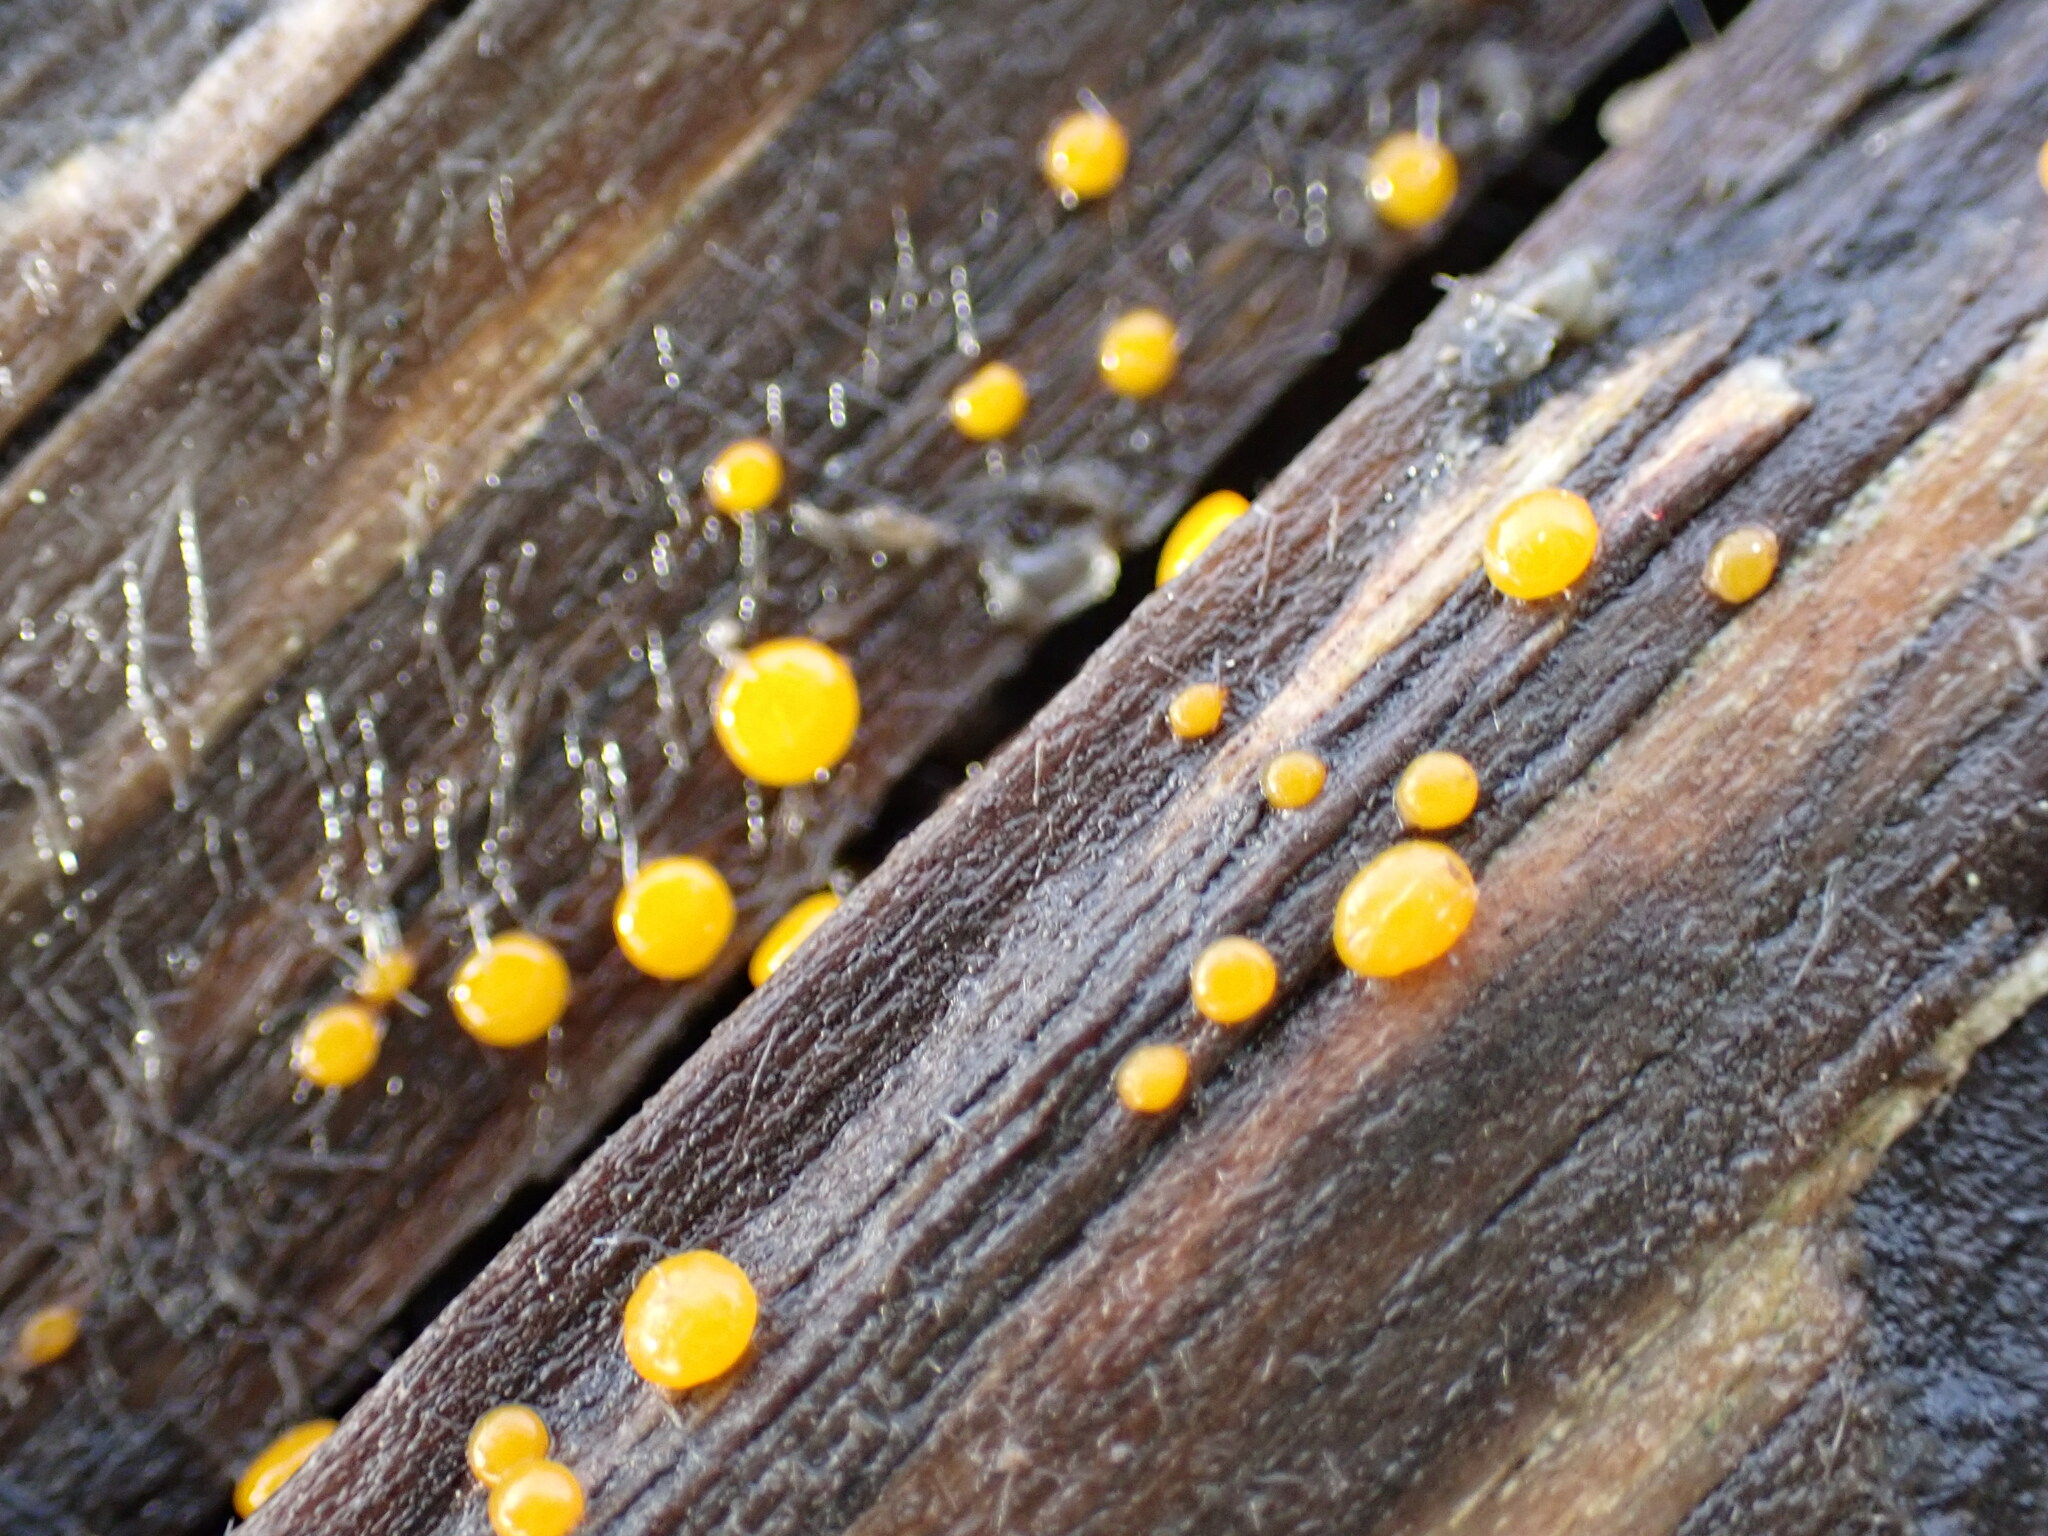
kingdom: Fungi
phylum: Basidiomycota
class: Dacrymycetes
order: Dacrymycetales
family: Dacrymycetaceae
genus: Dacrymyces
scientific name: Dacrymyces stillatus
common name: Common jelly spot
